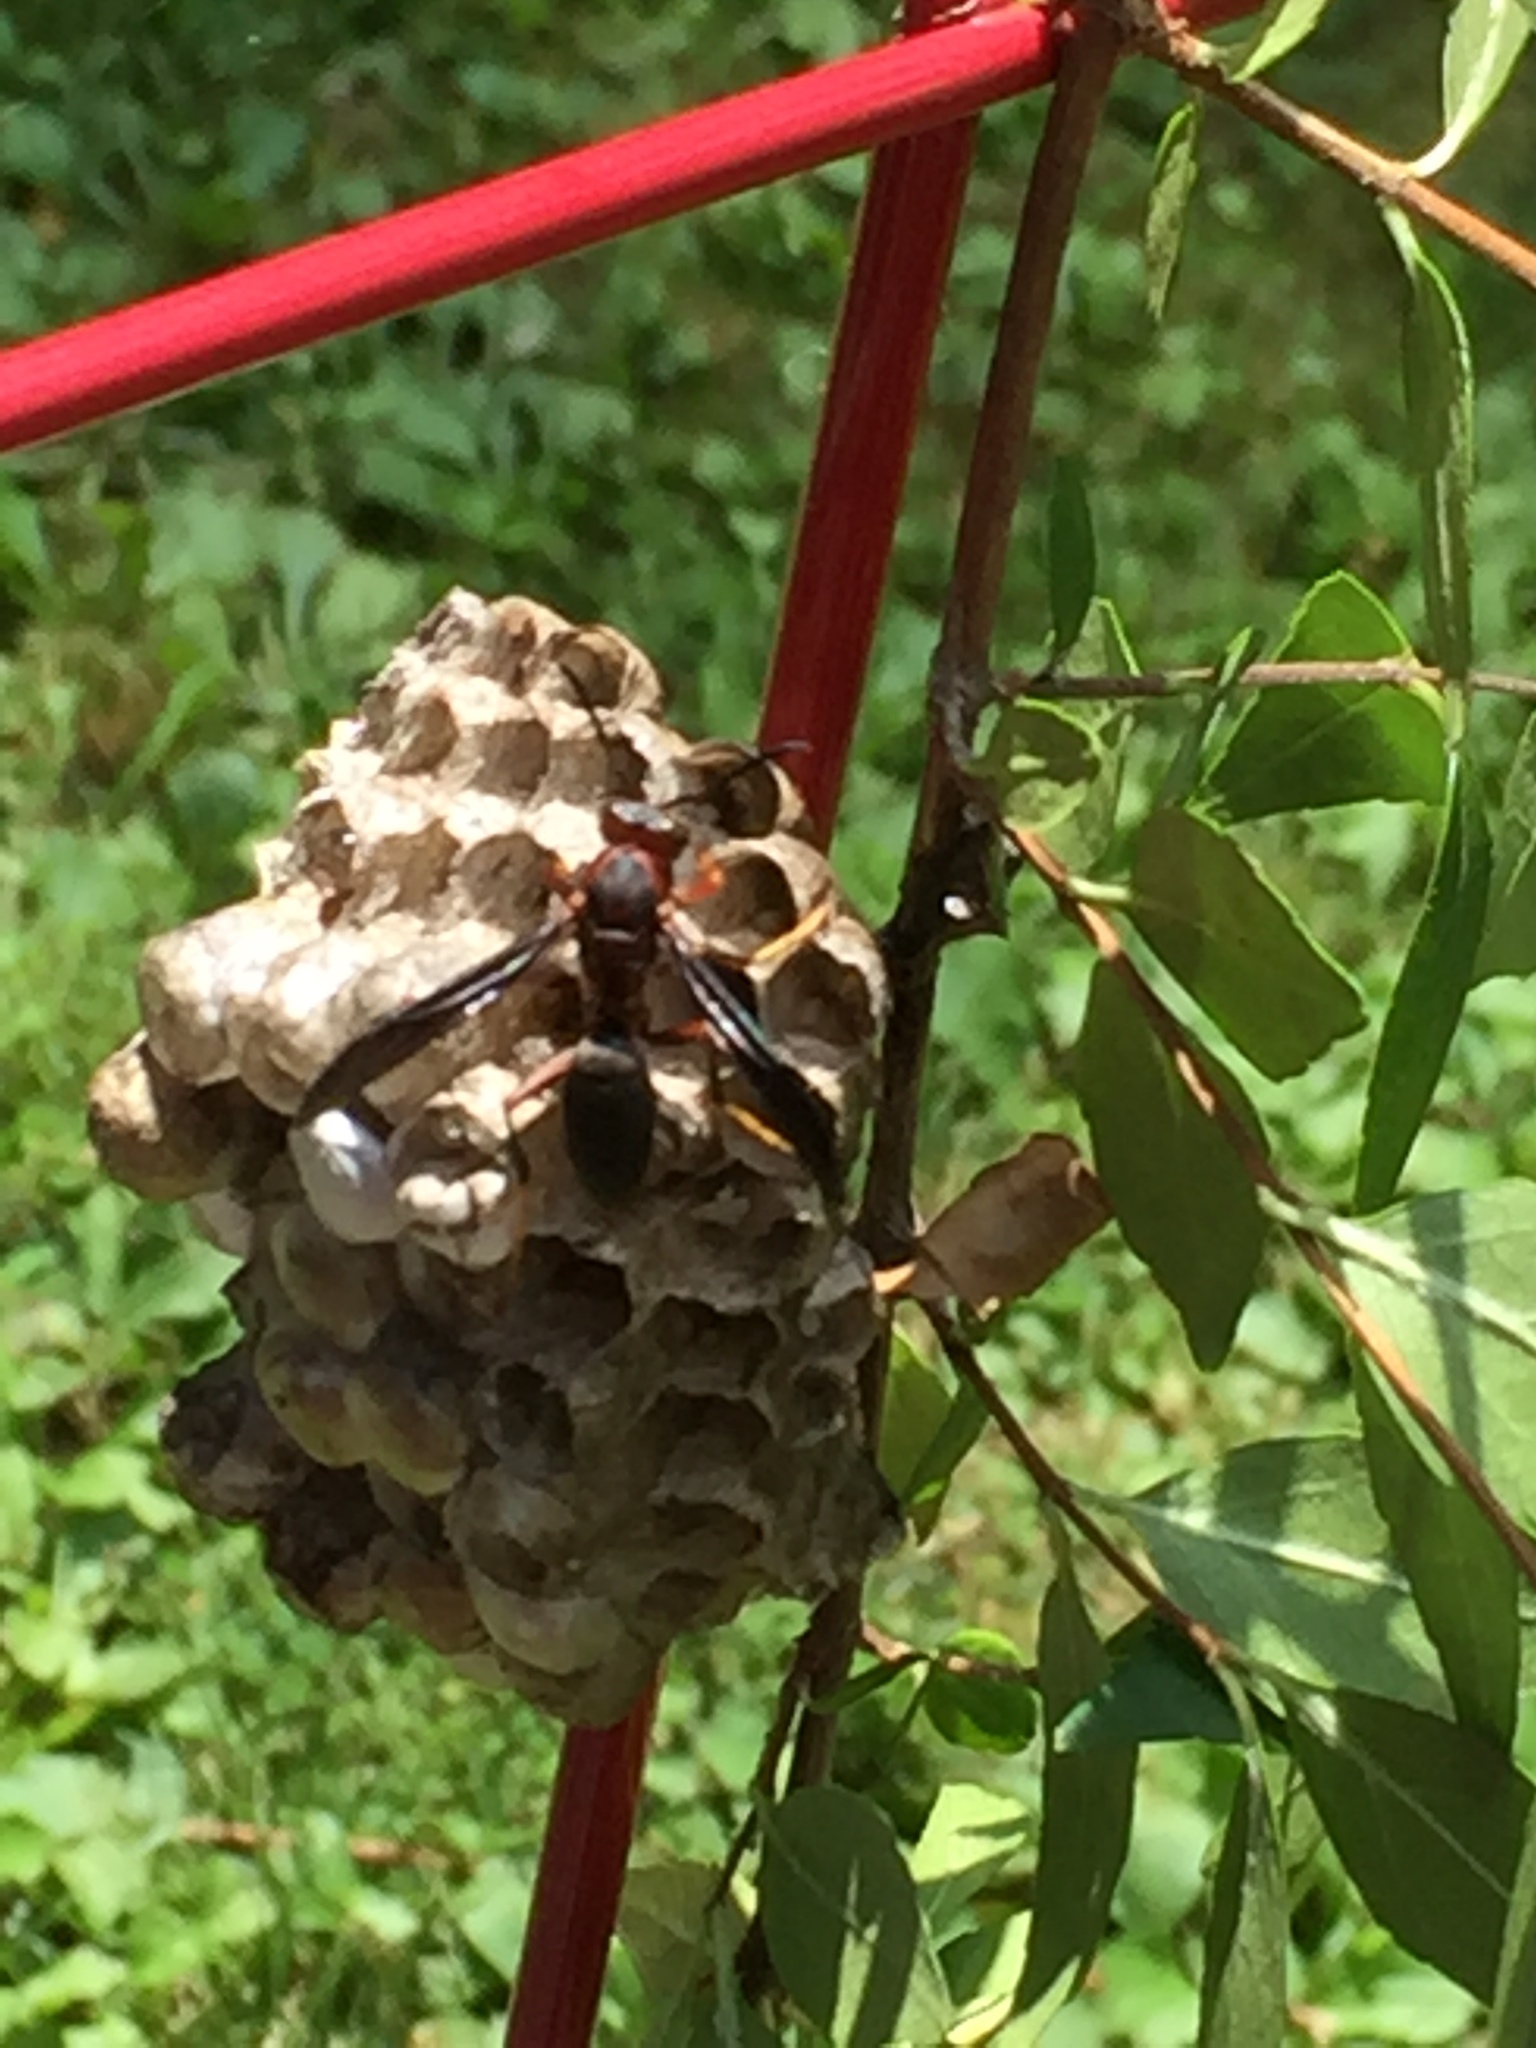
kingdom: Animalia
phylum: Arthropoda
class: Insecta
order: Hymenoptera
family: Eumenidae
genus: Polistes
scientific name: Polistes metricus
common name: Metric paper wasp
